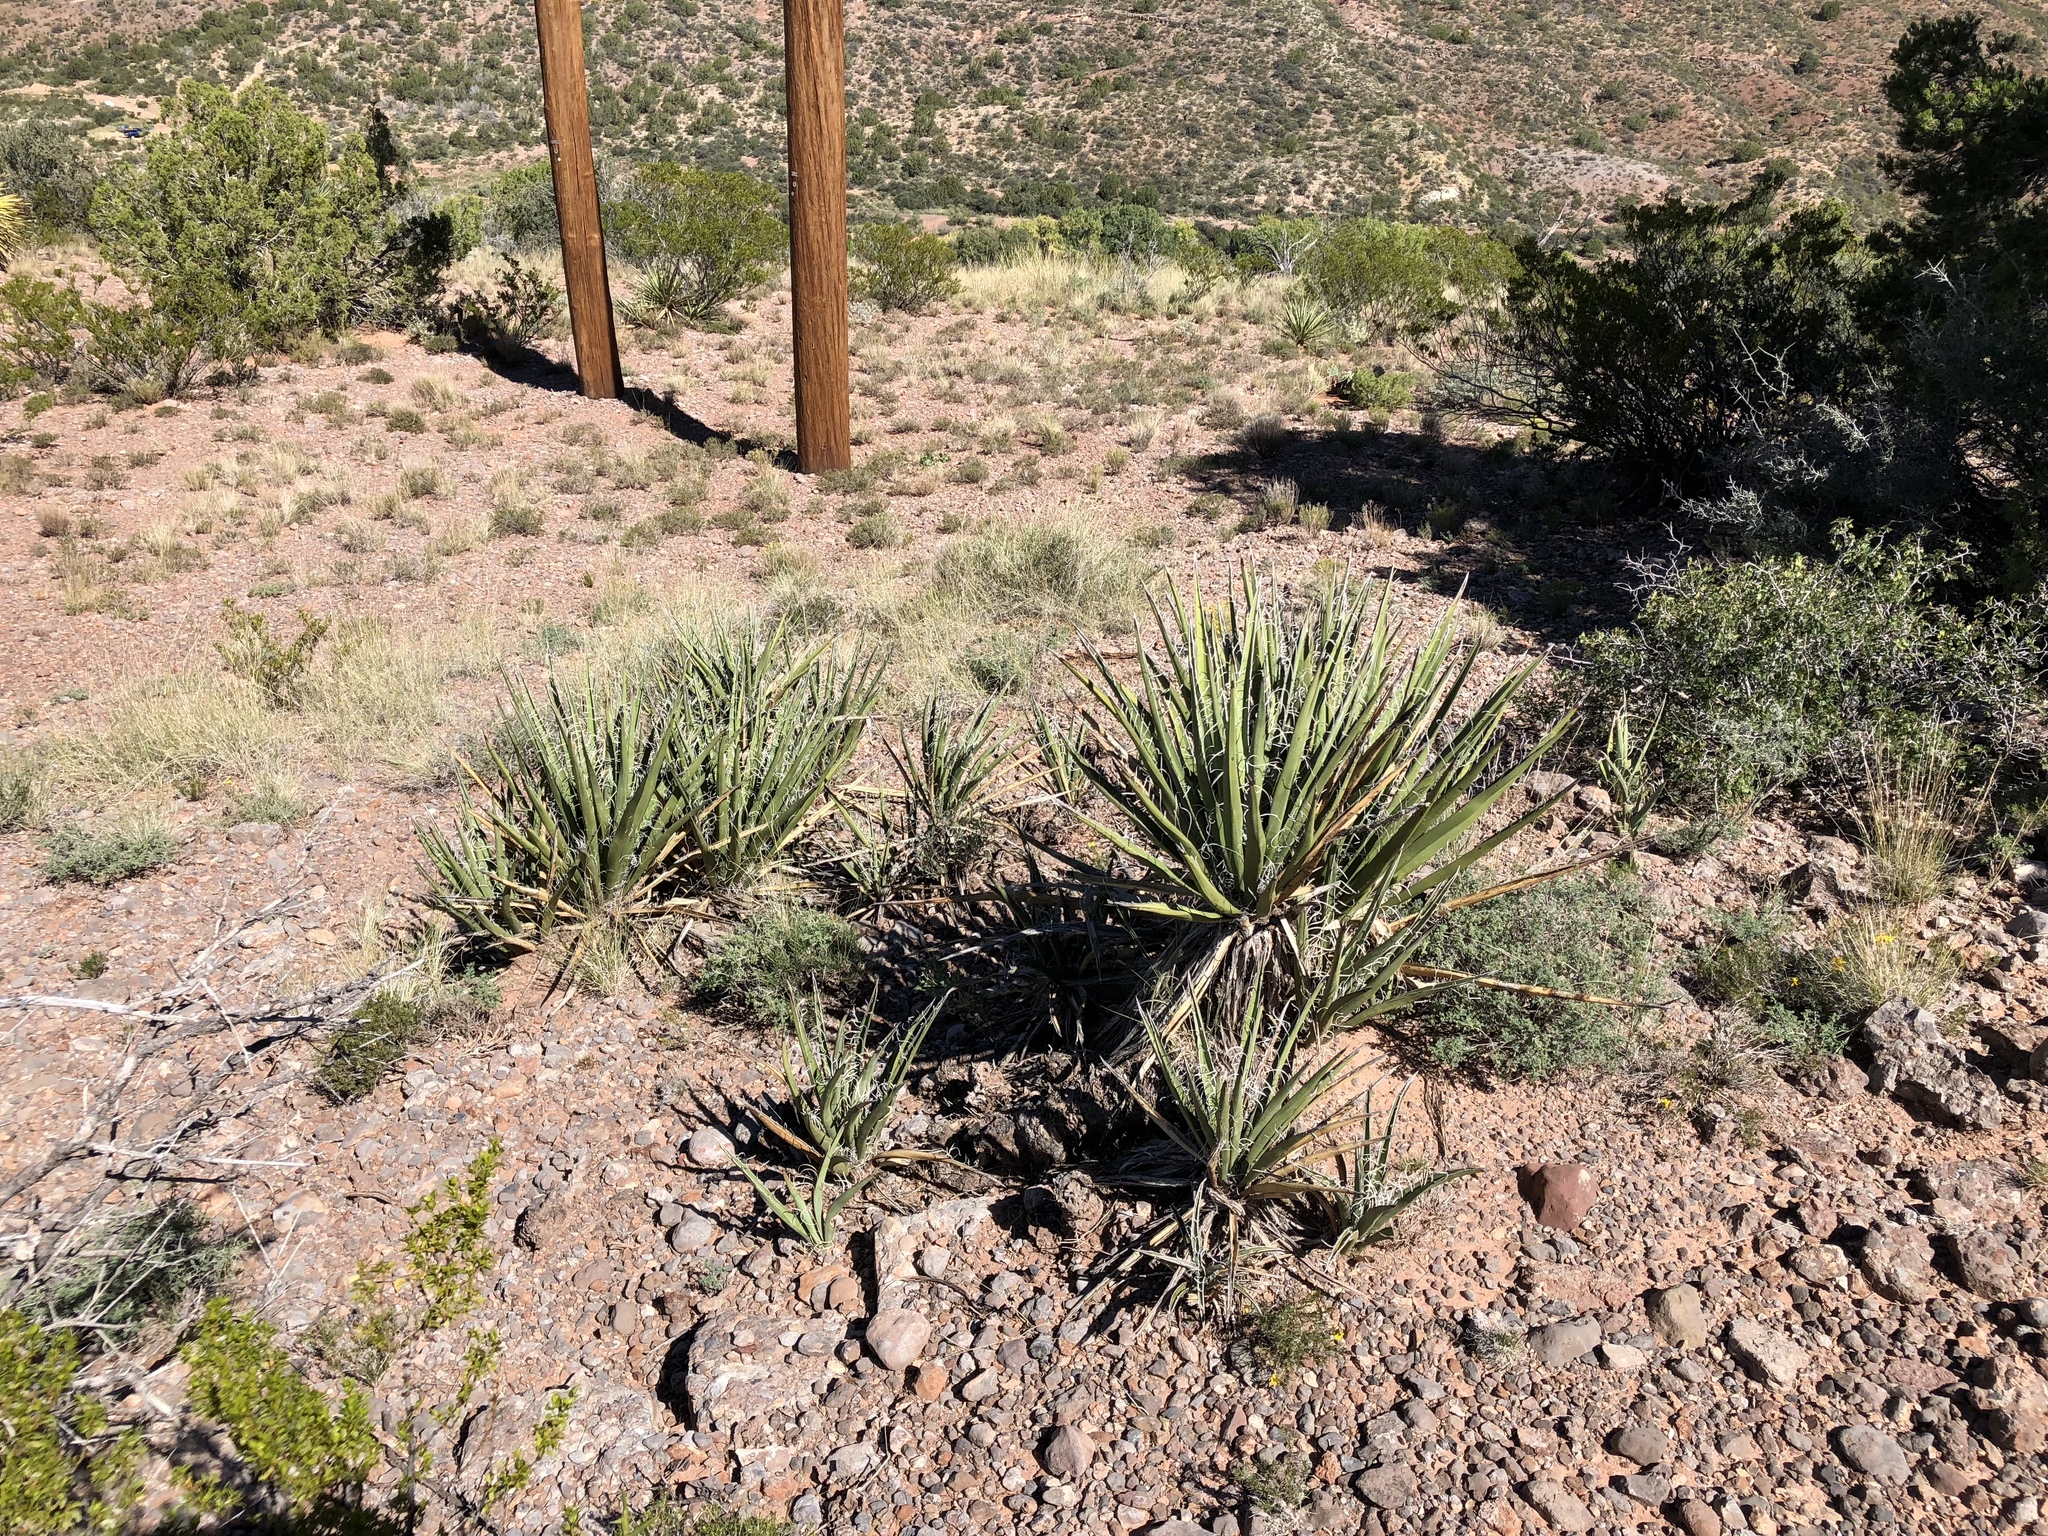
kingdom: Plantae
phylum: Tracheophyta
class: Liliopsida
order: Asparagales
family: Asparagaceae
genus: Yucca
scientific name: Yucca baccata
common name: Banana yucca
